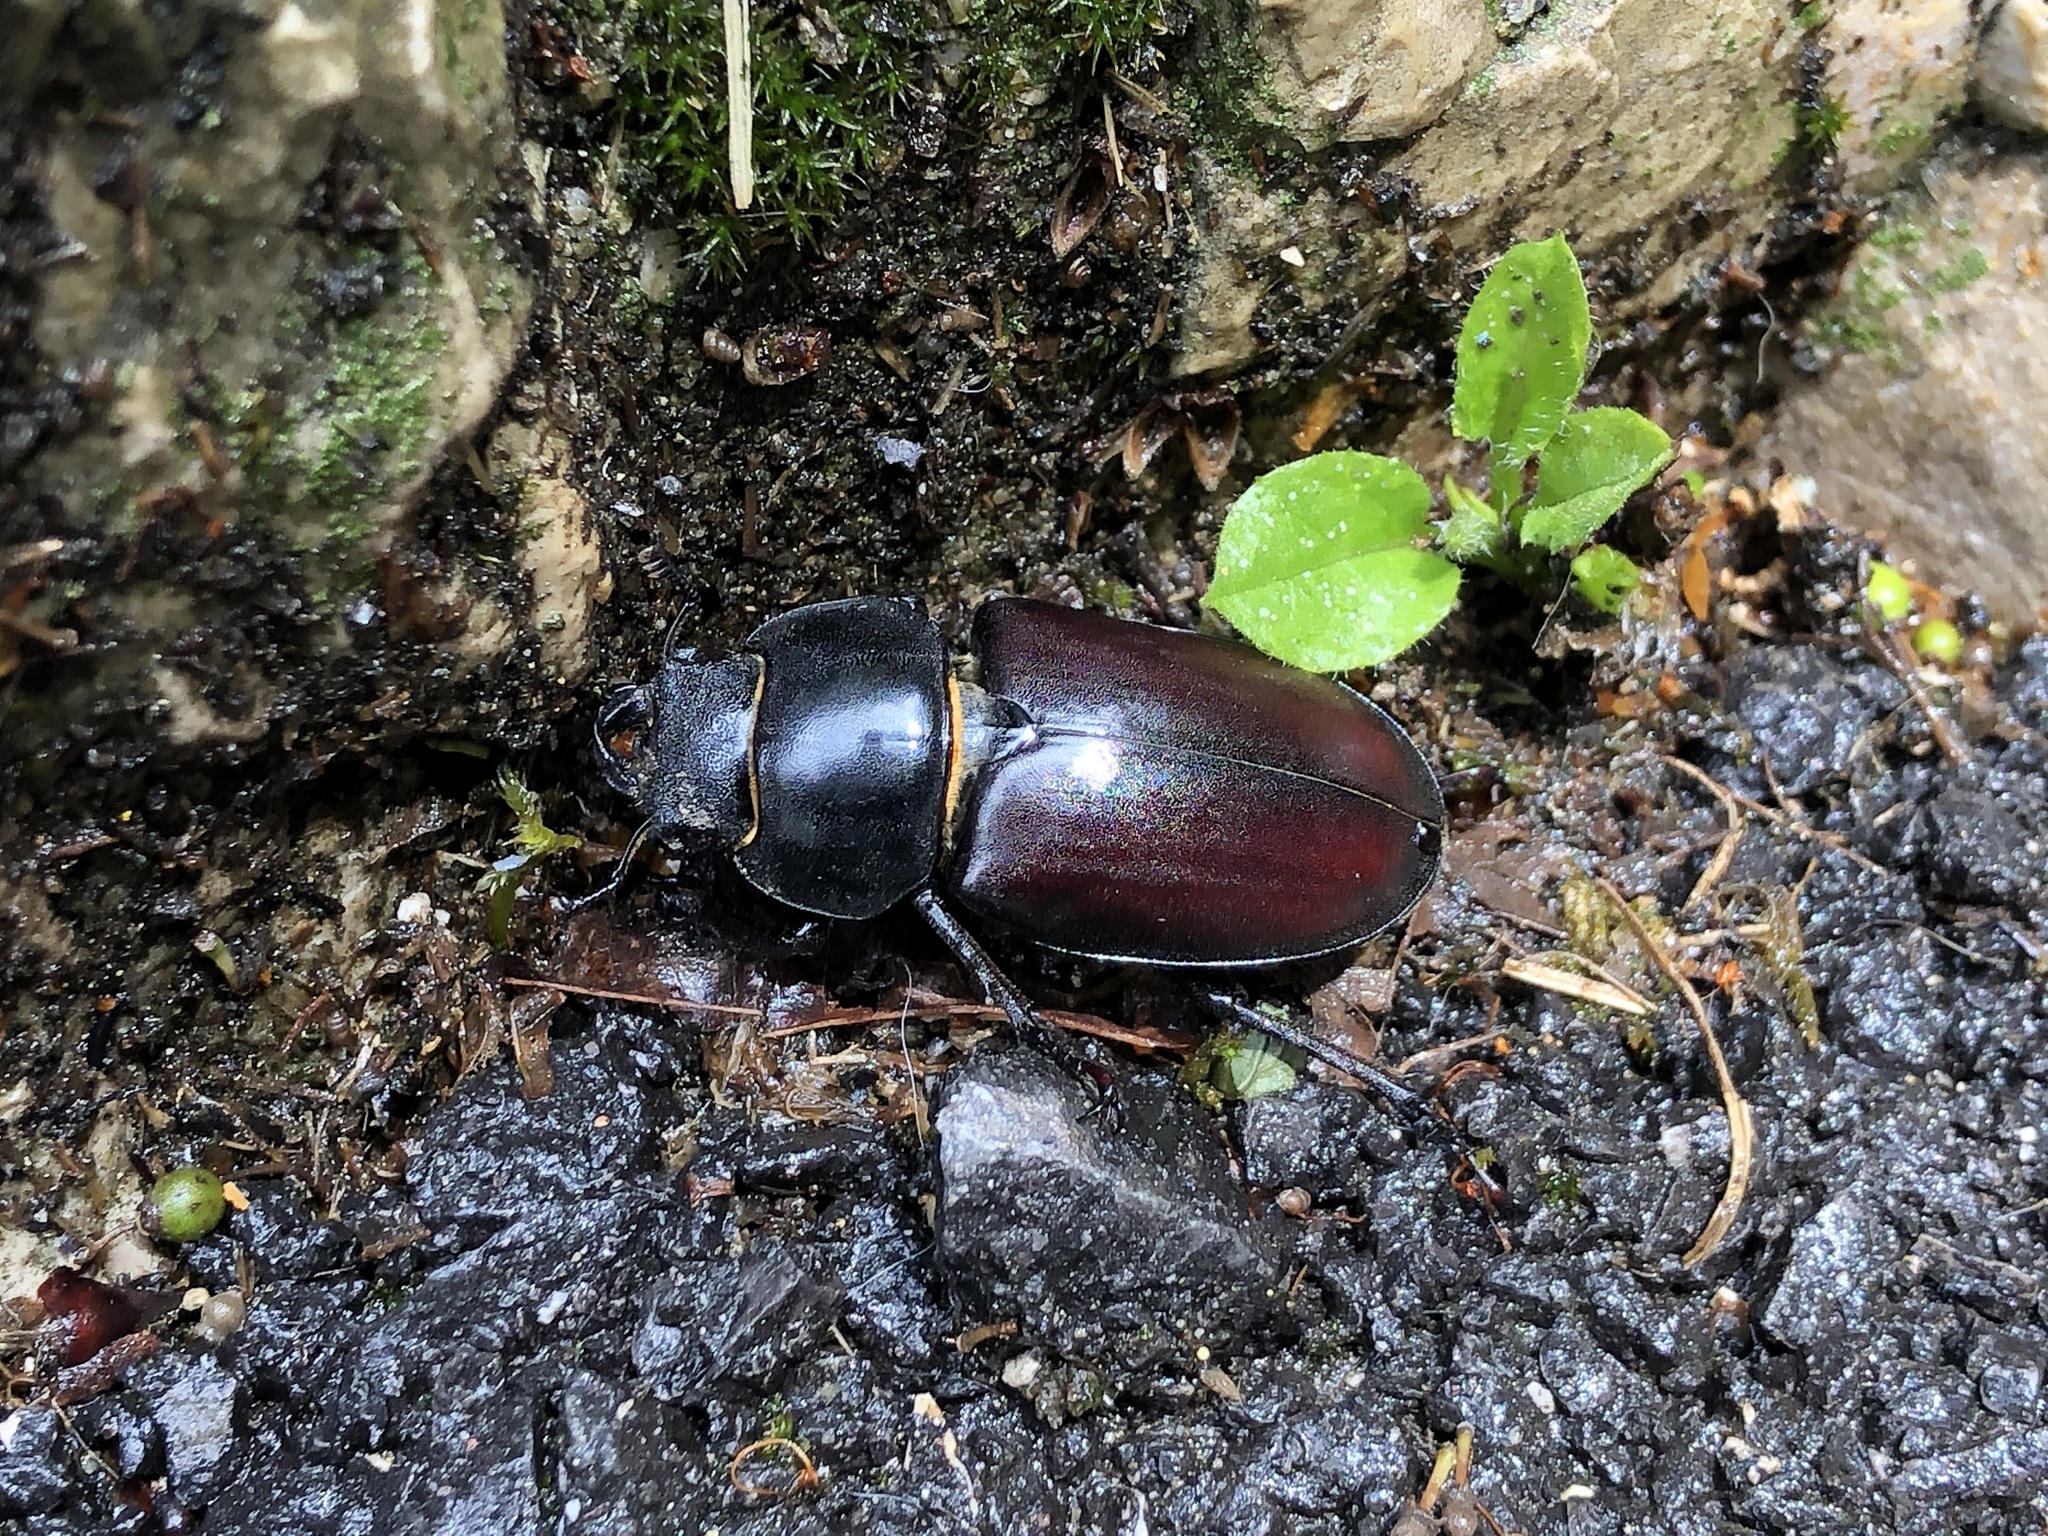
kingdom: Animalia
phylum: Arthropoda
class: Insecta
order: Coleoptera
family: Lucanidae
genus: Lucanus
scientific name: Lucanus cervus
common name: Stag beetle
